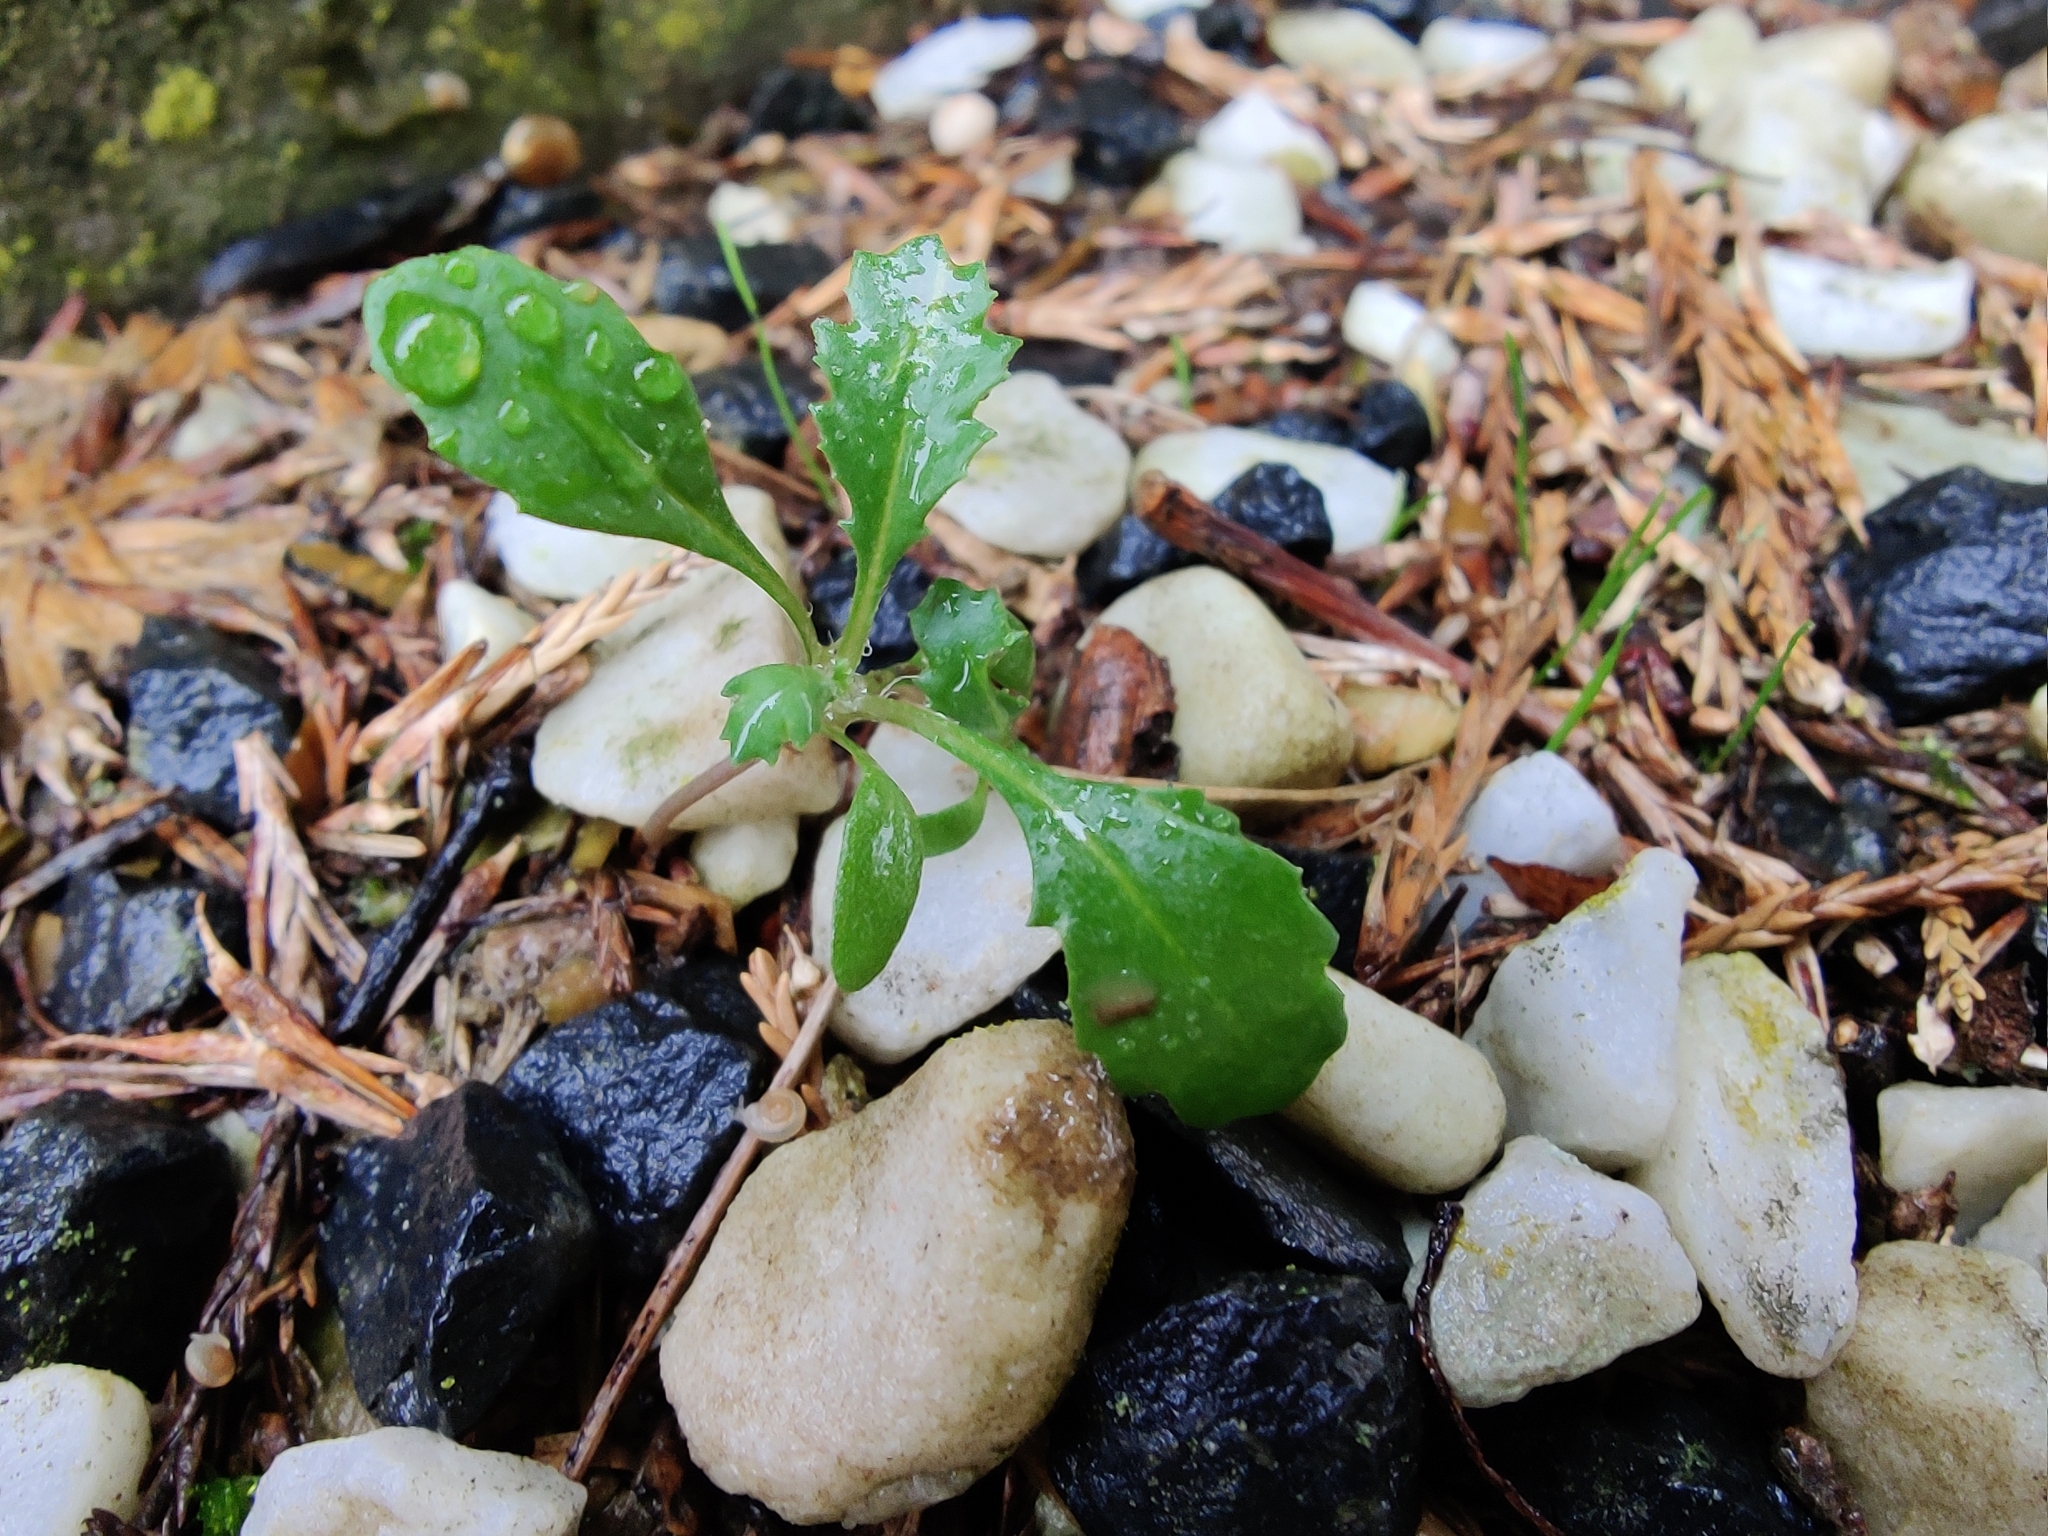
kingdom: Plantae
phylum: Tracheophyta
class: Magnoliopsida
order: Asterales
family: Asteraceae
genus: Senecio
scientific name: Senecio vulgaris
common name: Old-man-in-the-spring
